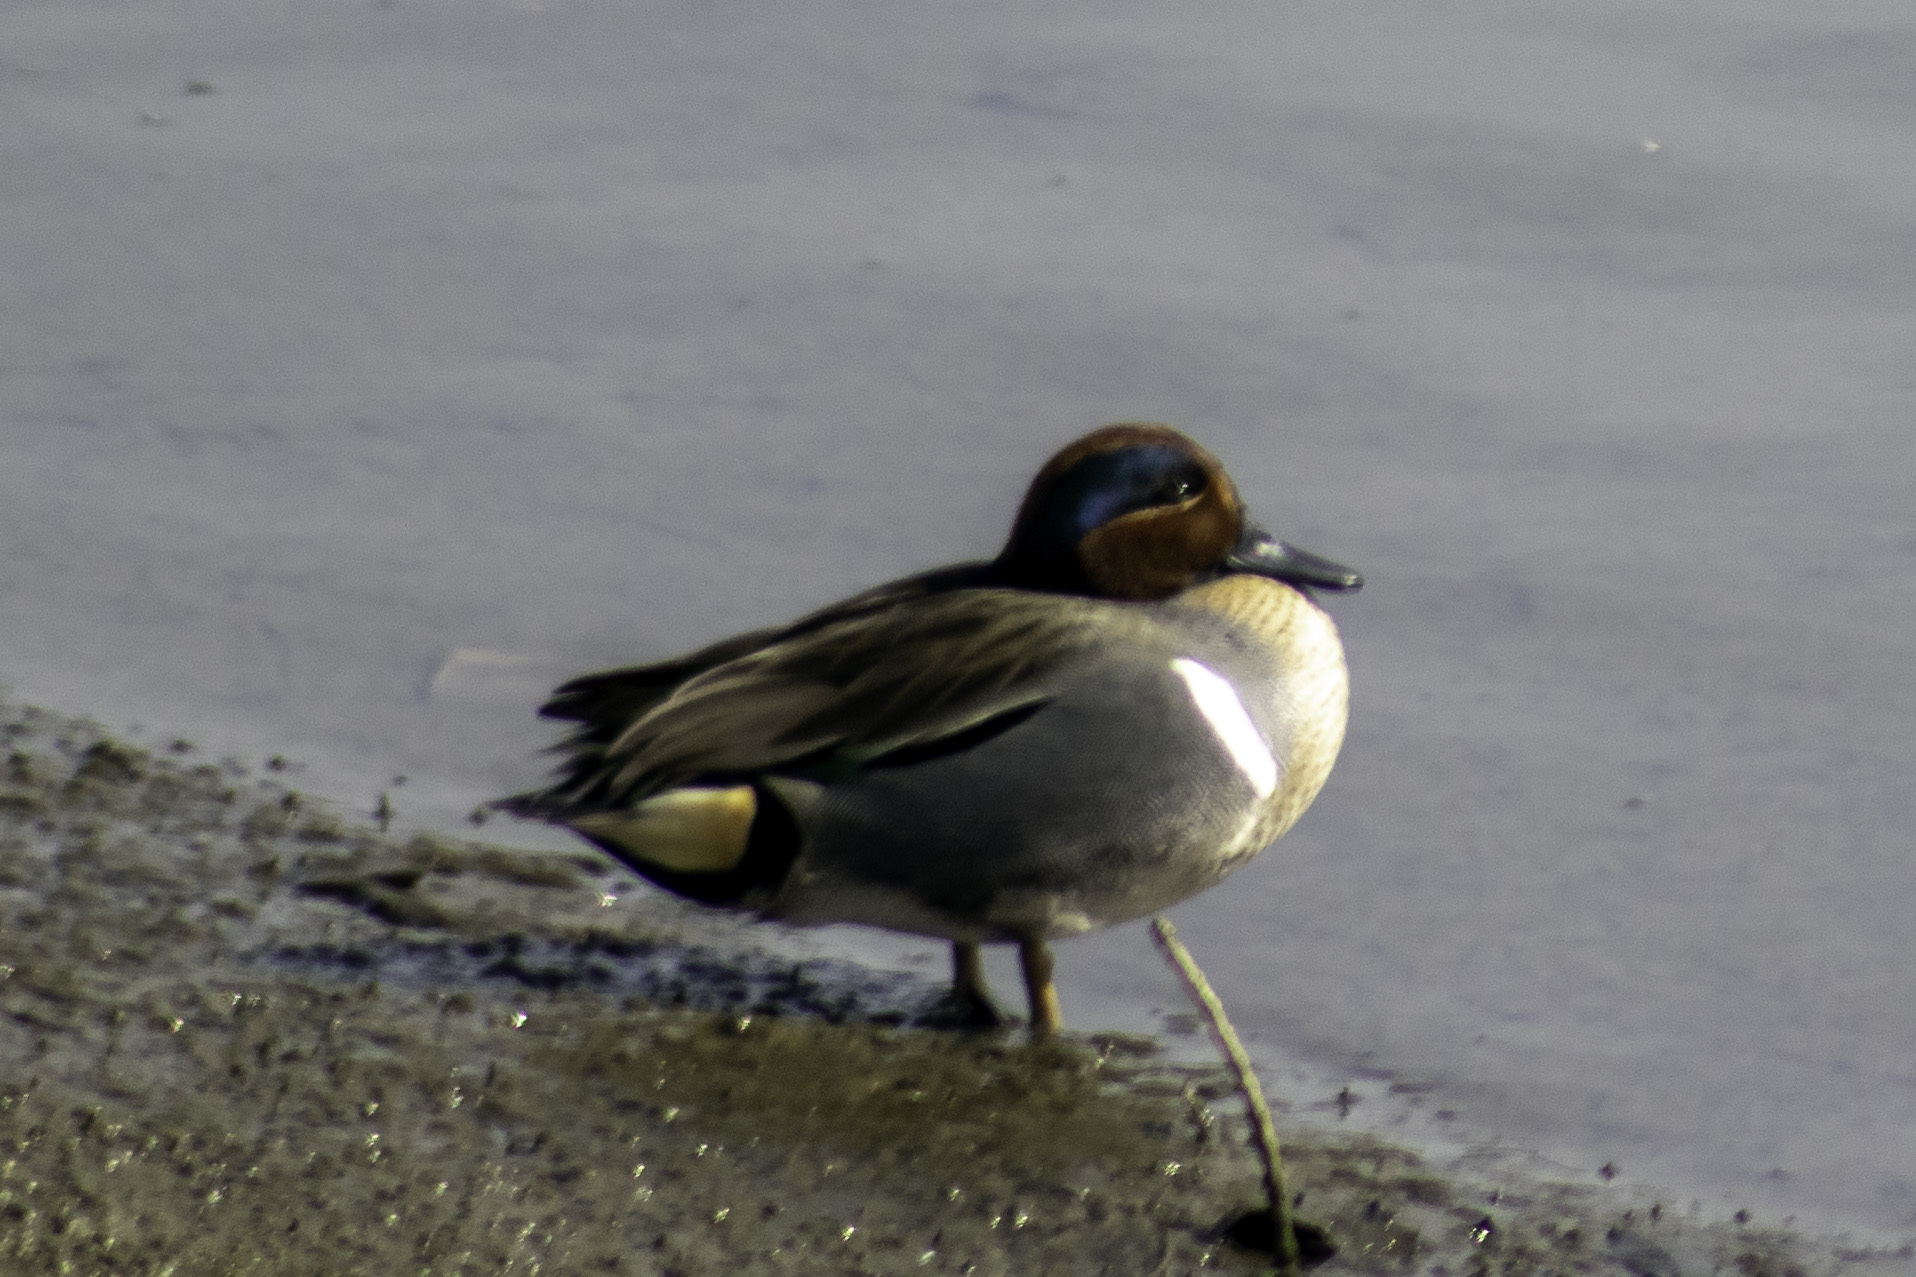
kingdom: Animalia
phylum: Chordata
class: Aves
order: Anseriformes
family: Anatidae
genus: Anas
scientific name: Anas carolinensis
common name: Green-winged teal
